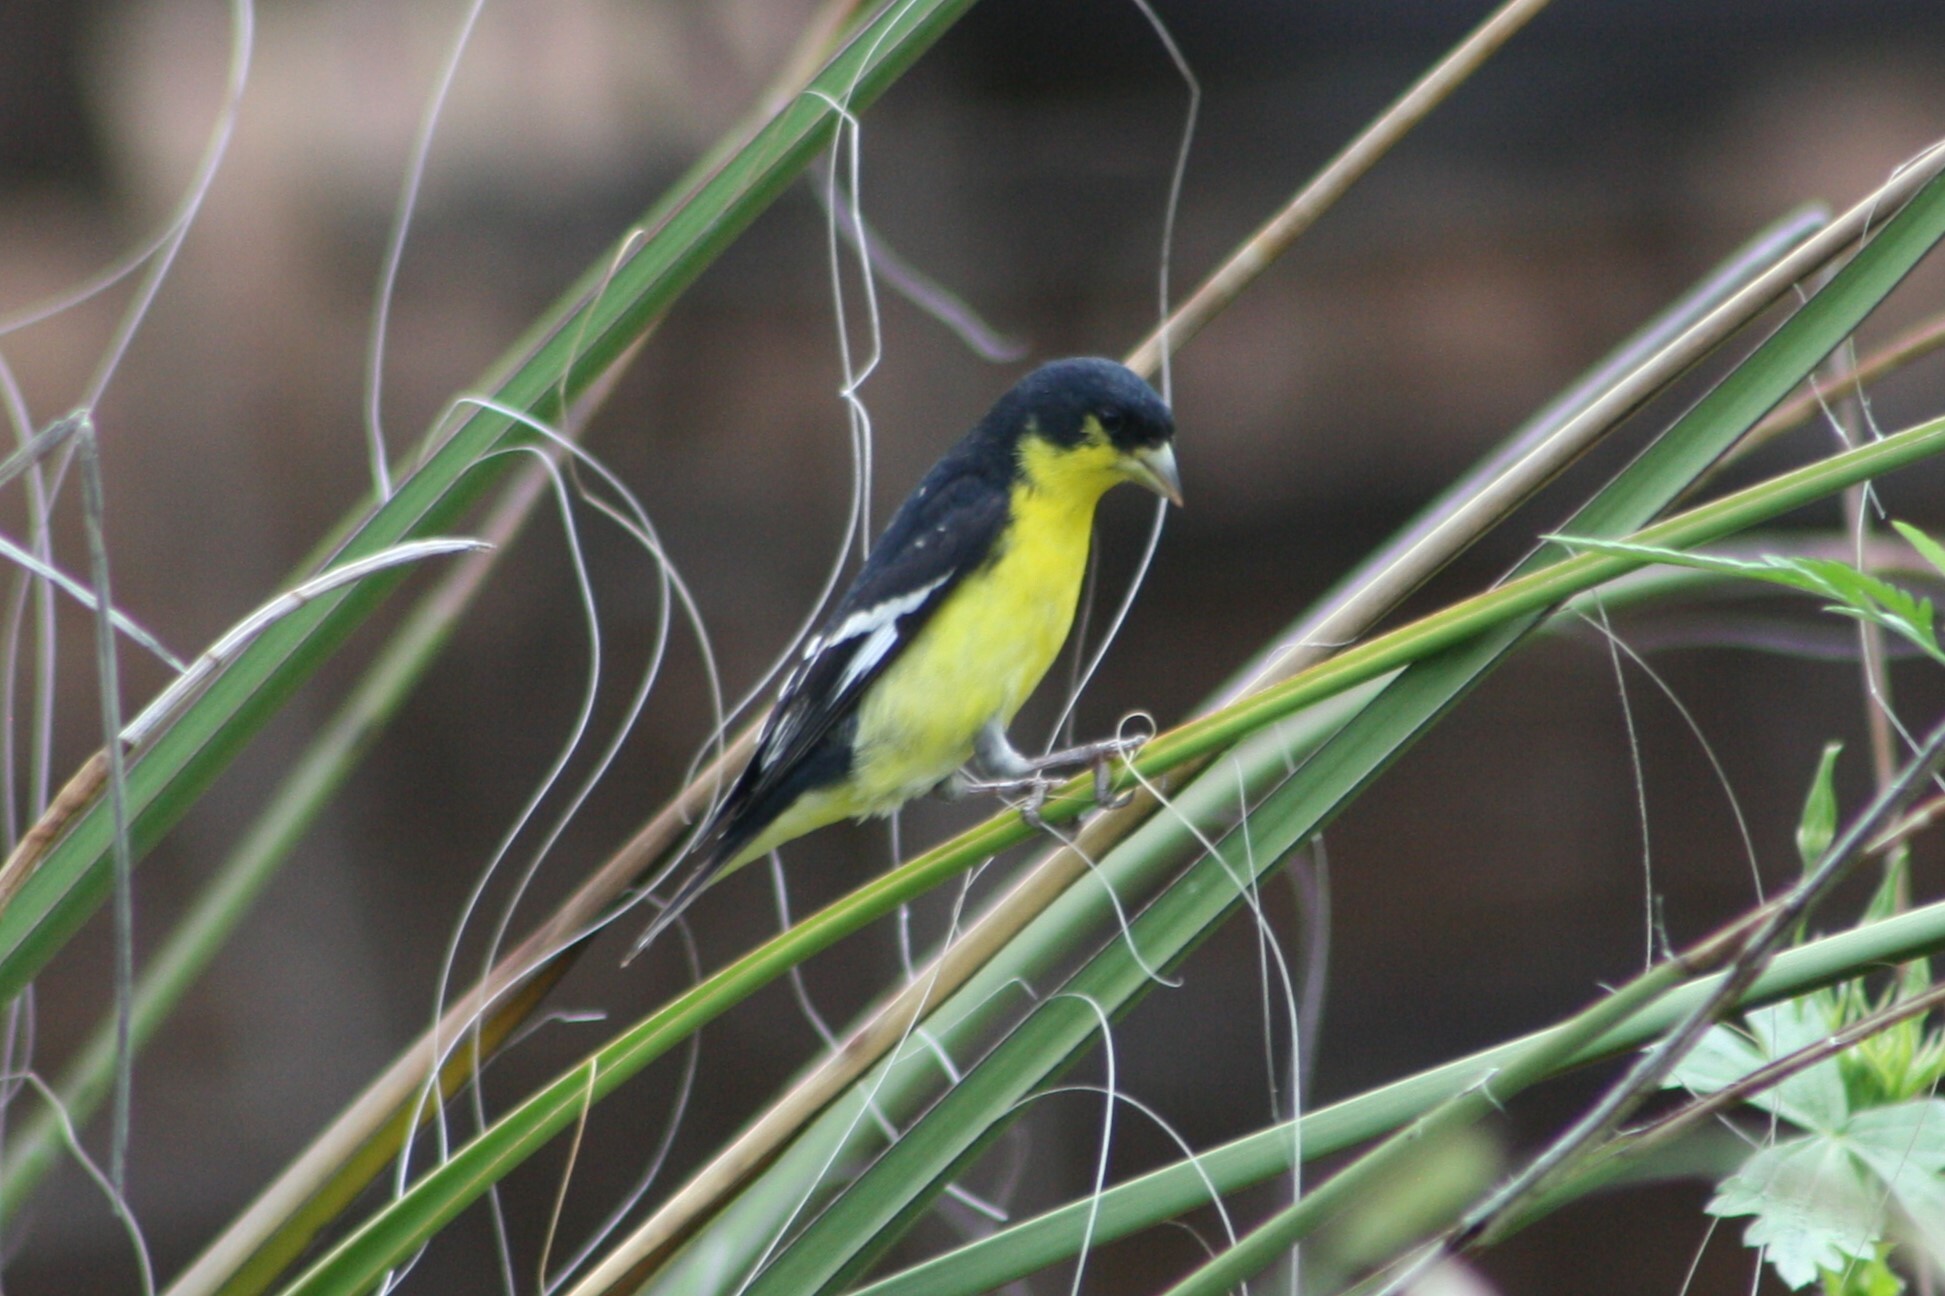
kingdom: Animalia
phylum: Chordata
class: Aves
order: Passeriformes
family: Fringillidae
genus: Spinus
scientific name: Spinus psaltria
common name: Lesser goldfinch
